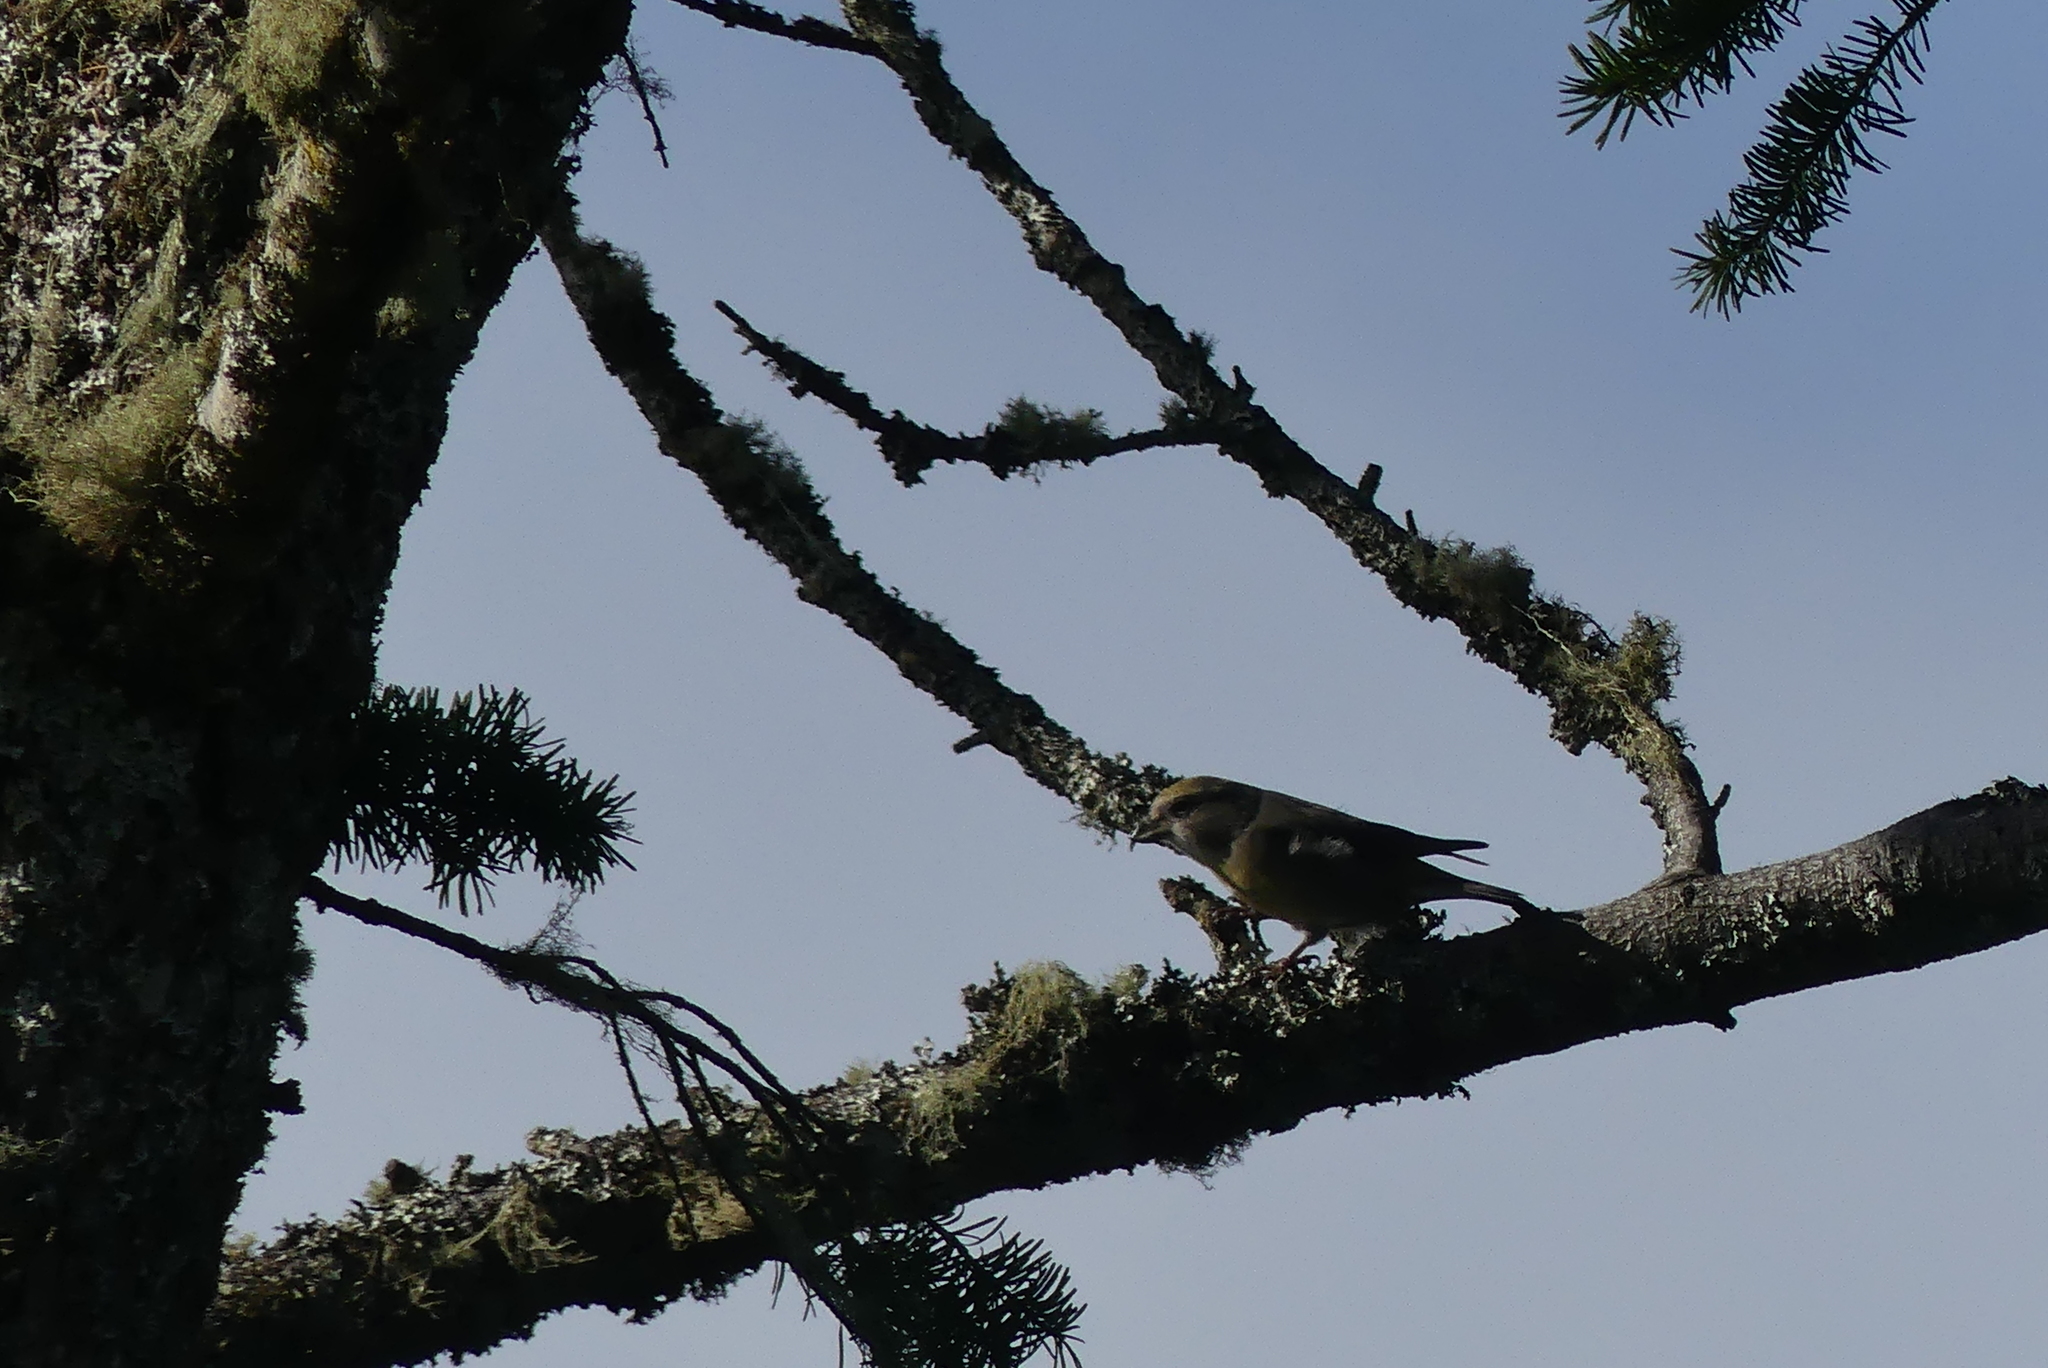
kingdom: Animalia
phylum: Chordata
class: Aves
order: Passeriformes
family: Fringillidae
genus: Loxia
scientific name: Loxia curvirostra
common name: Red crossbill
